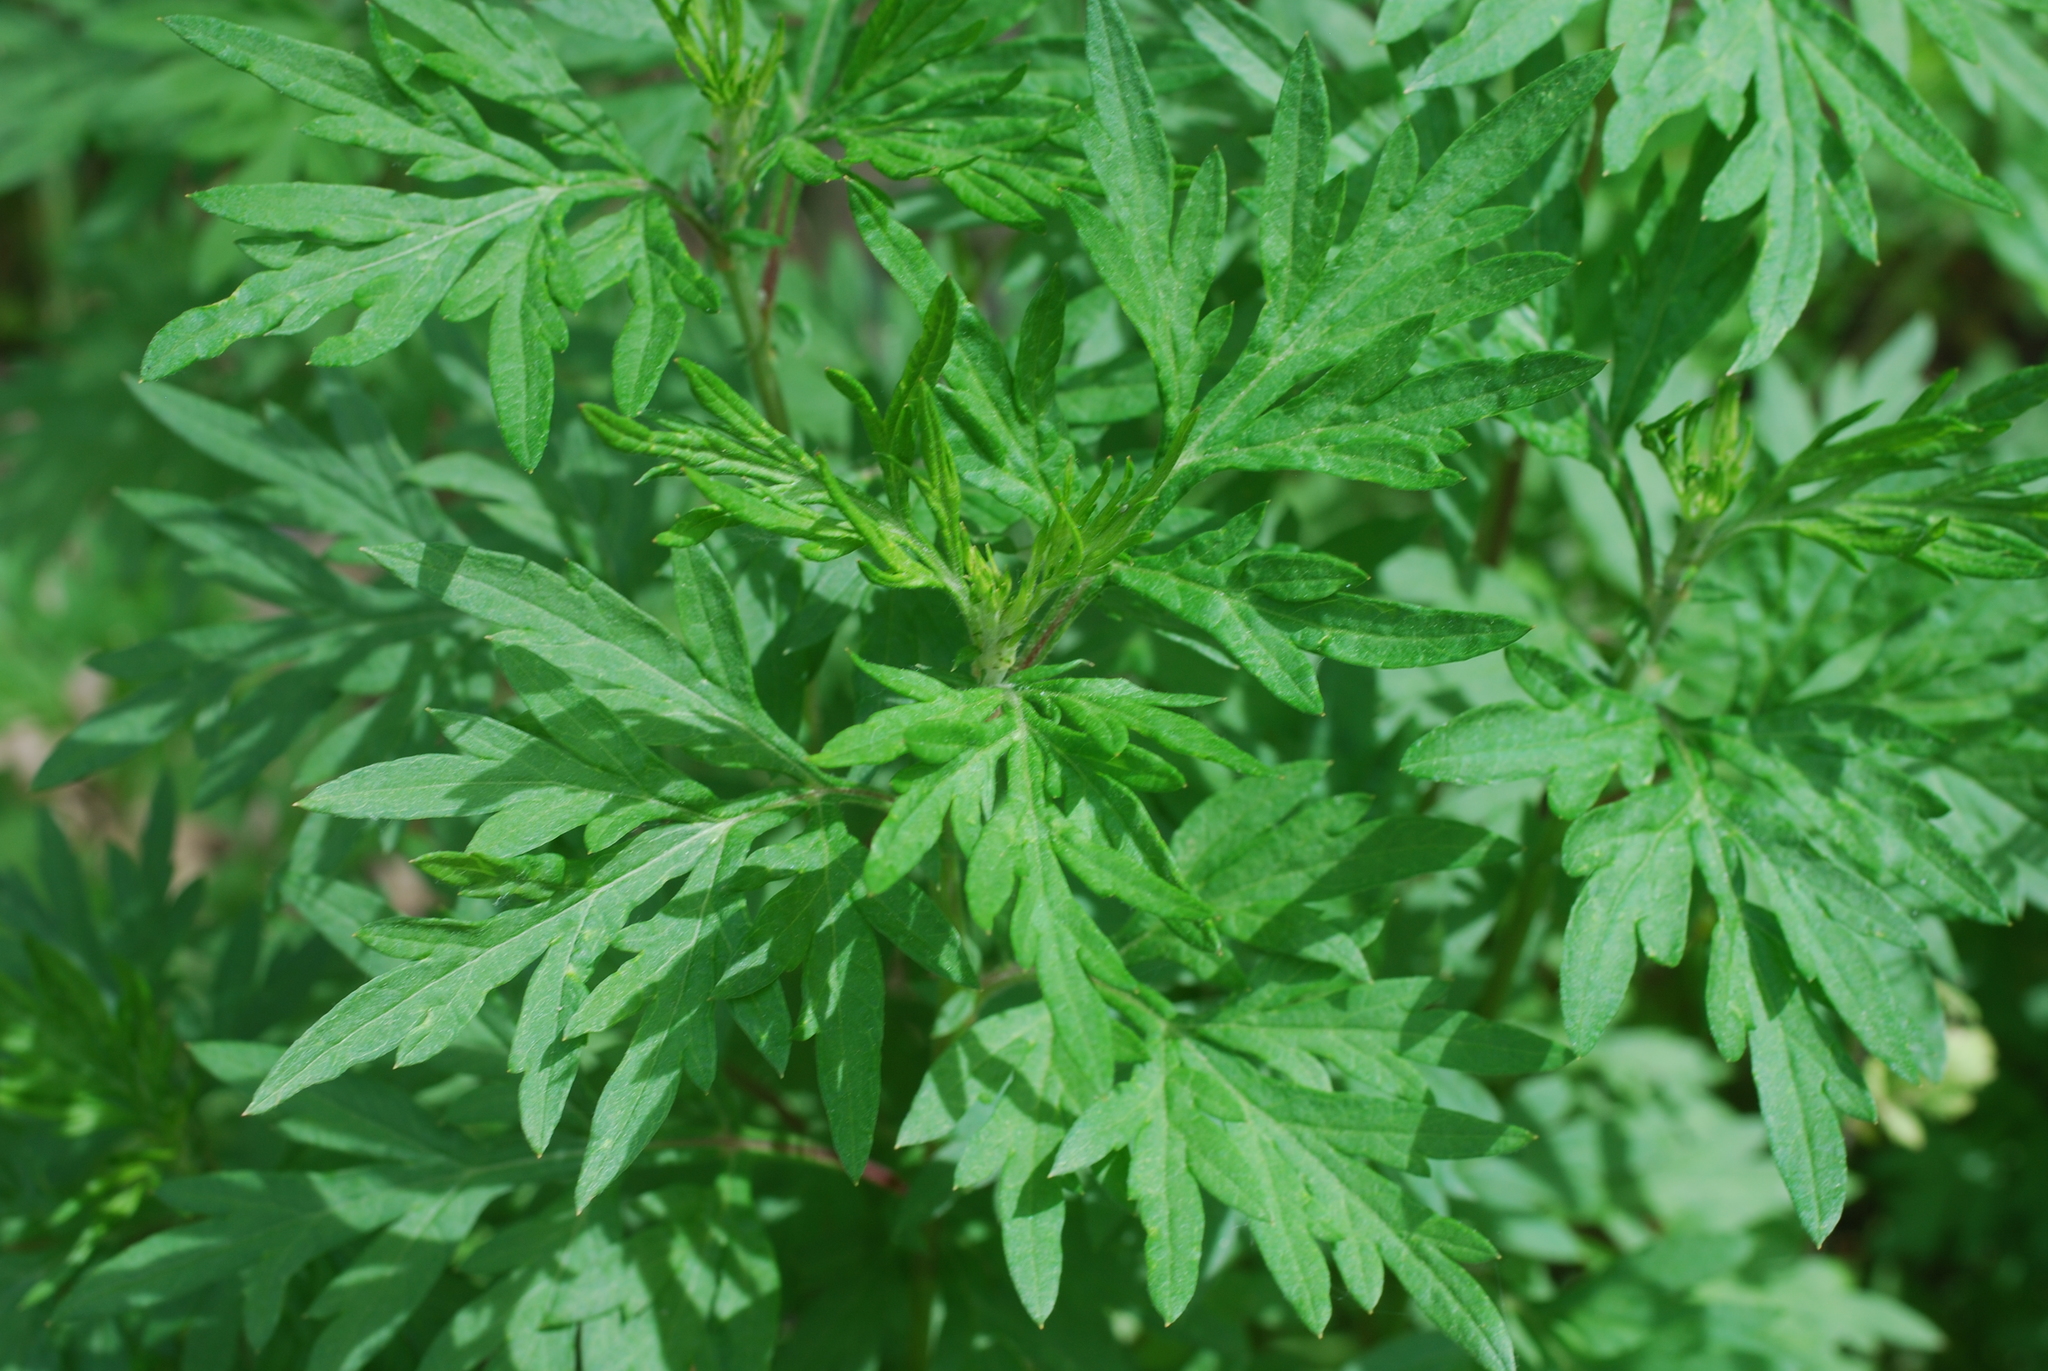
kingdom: Plantae
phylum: Tracheophyta
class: Magnoliopsida
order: Asterales
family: Asteraceae
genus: Artemisia
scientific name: Artemisia vulgaris
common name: Mugwort
